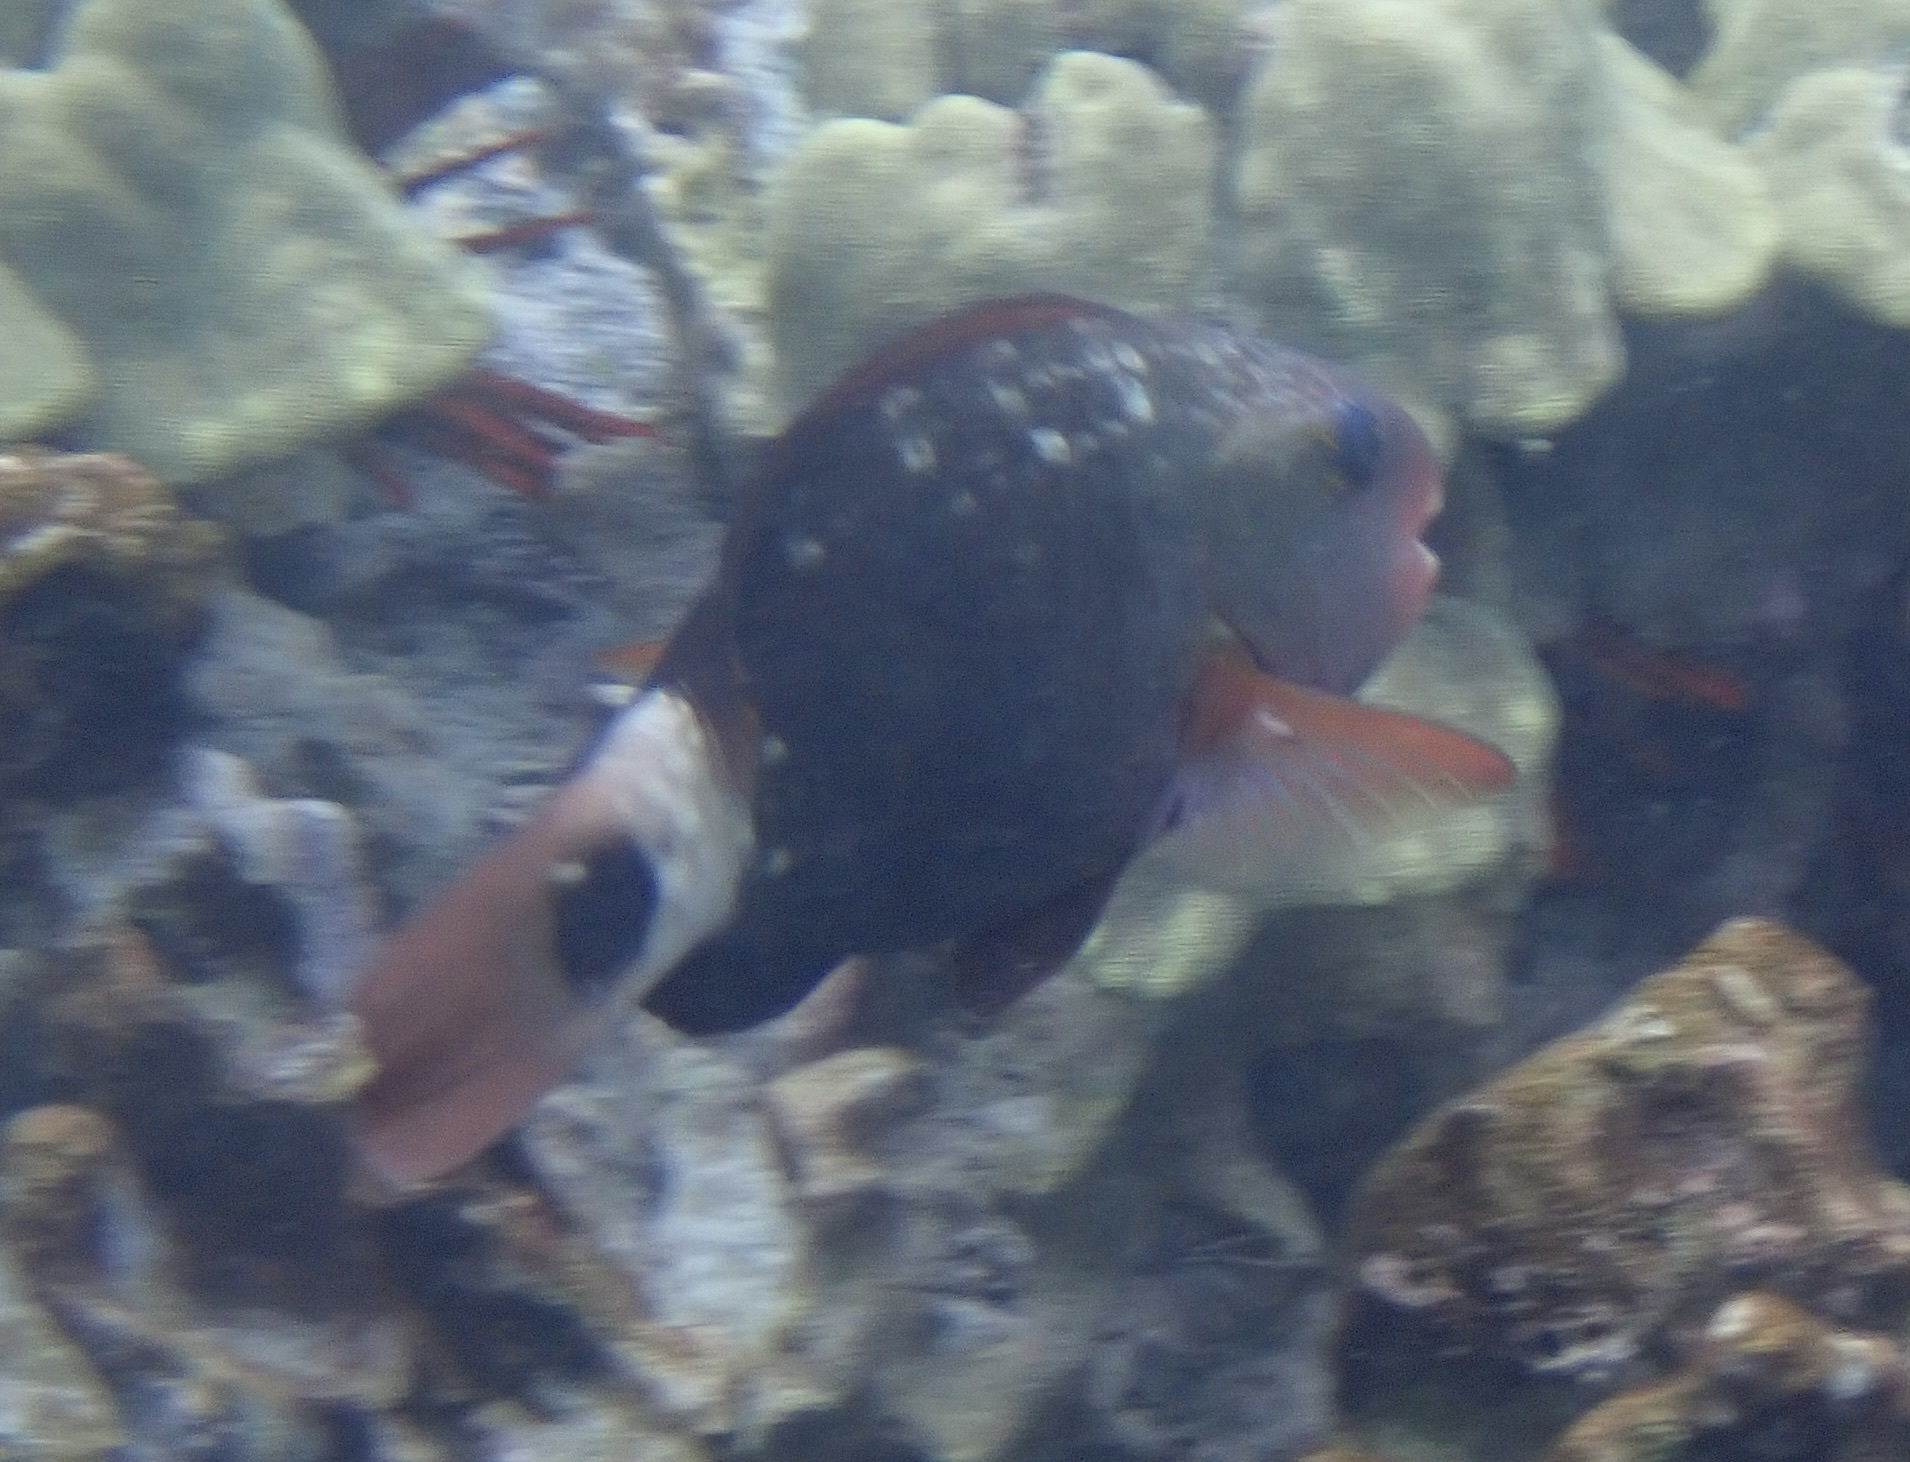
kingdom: Animalia
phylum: Chordata
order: Perciformes
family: Scaridae
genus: Chlorurus
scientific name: Chlorurus spilurus
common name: Bullethead parrotfish
